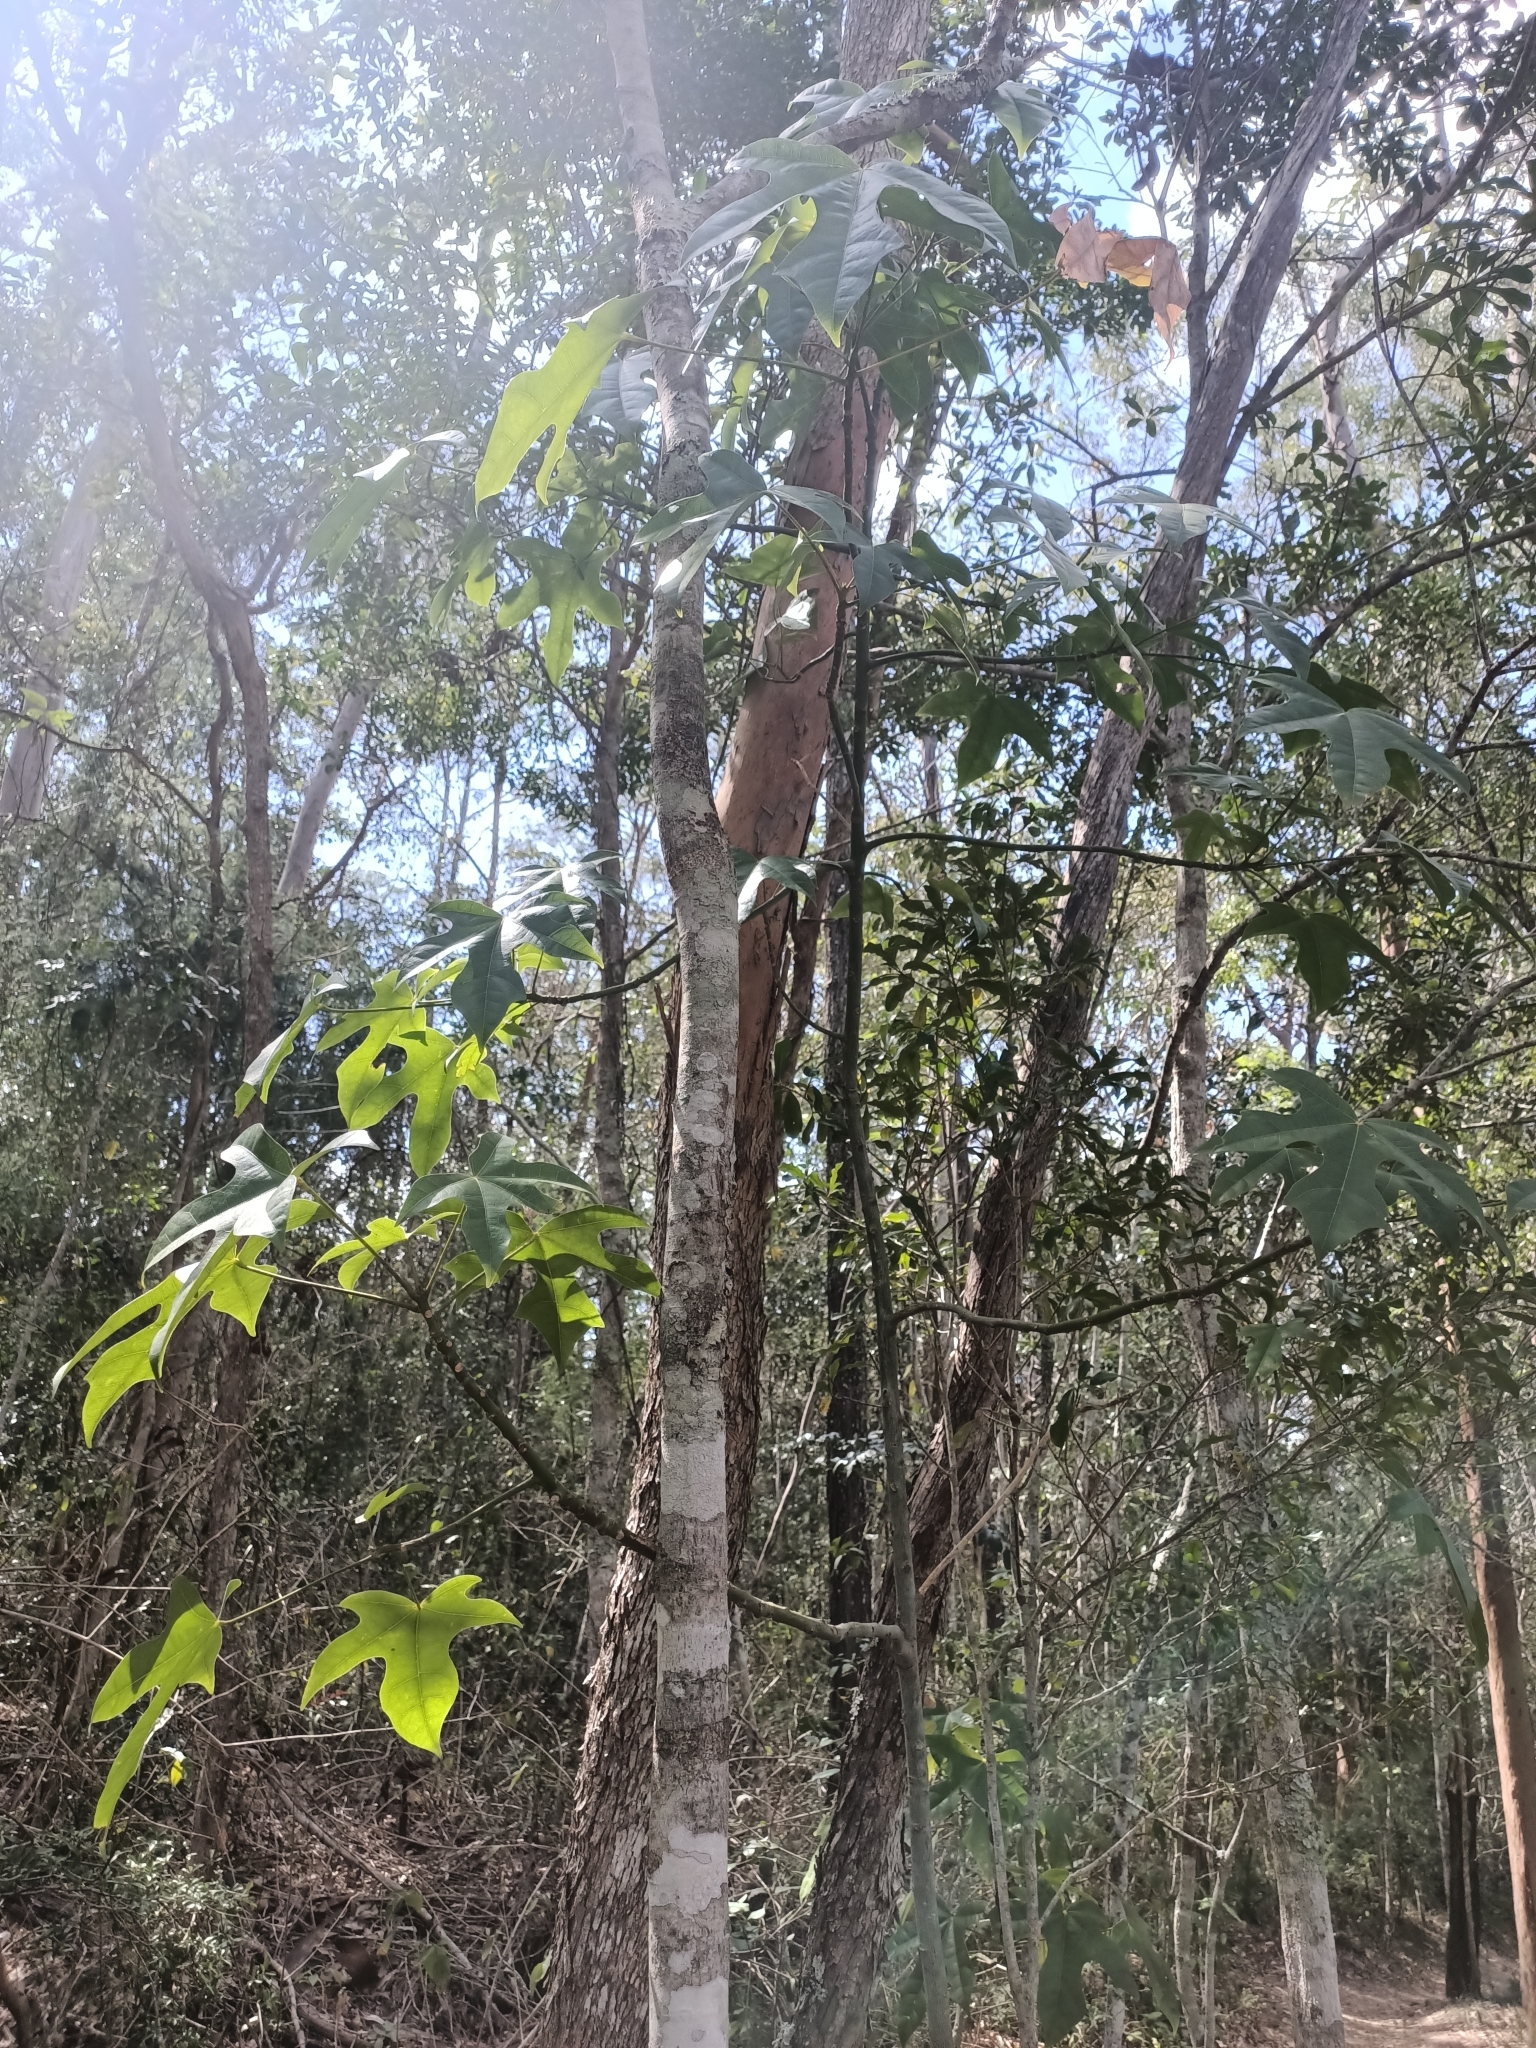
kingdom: Plantae
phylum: Tracheophyta
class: Magnoliopsida
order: Malvales
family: Malvaceae
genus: Brachychiton
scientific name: Brachychiton acerifolius
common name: Illawarra flame tree
